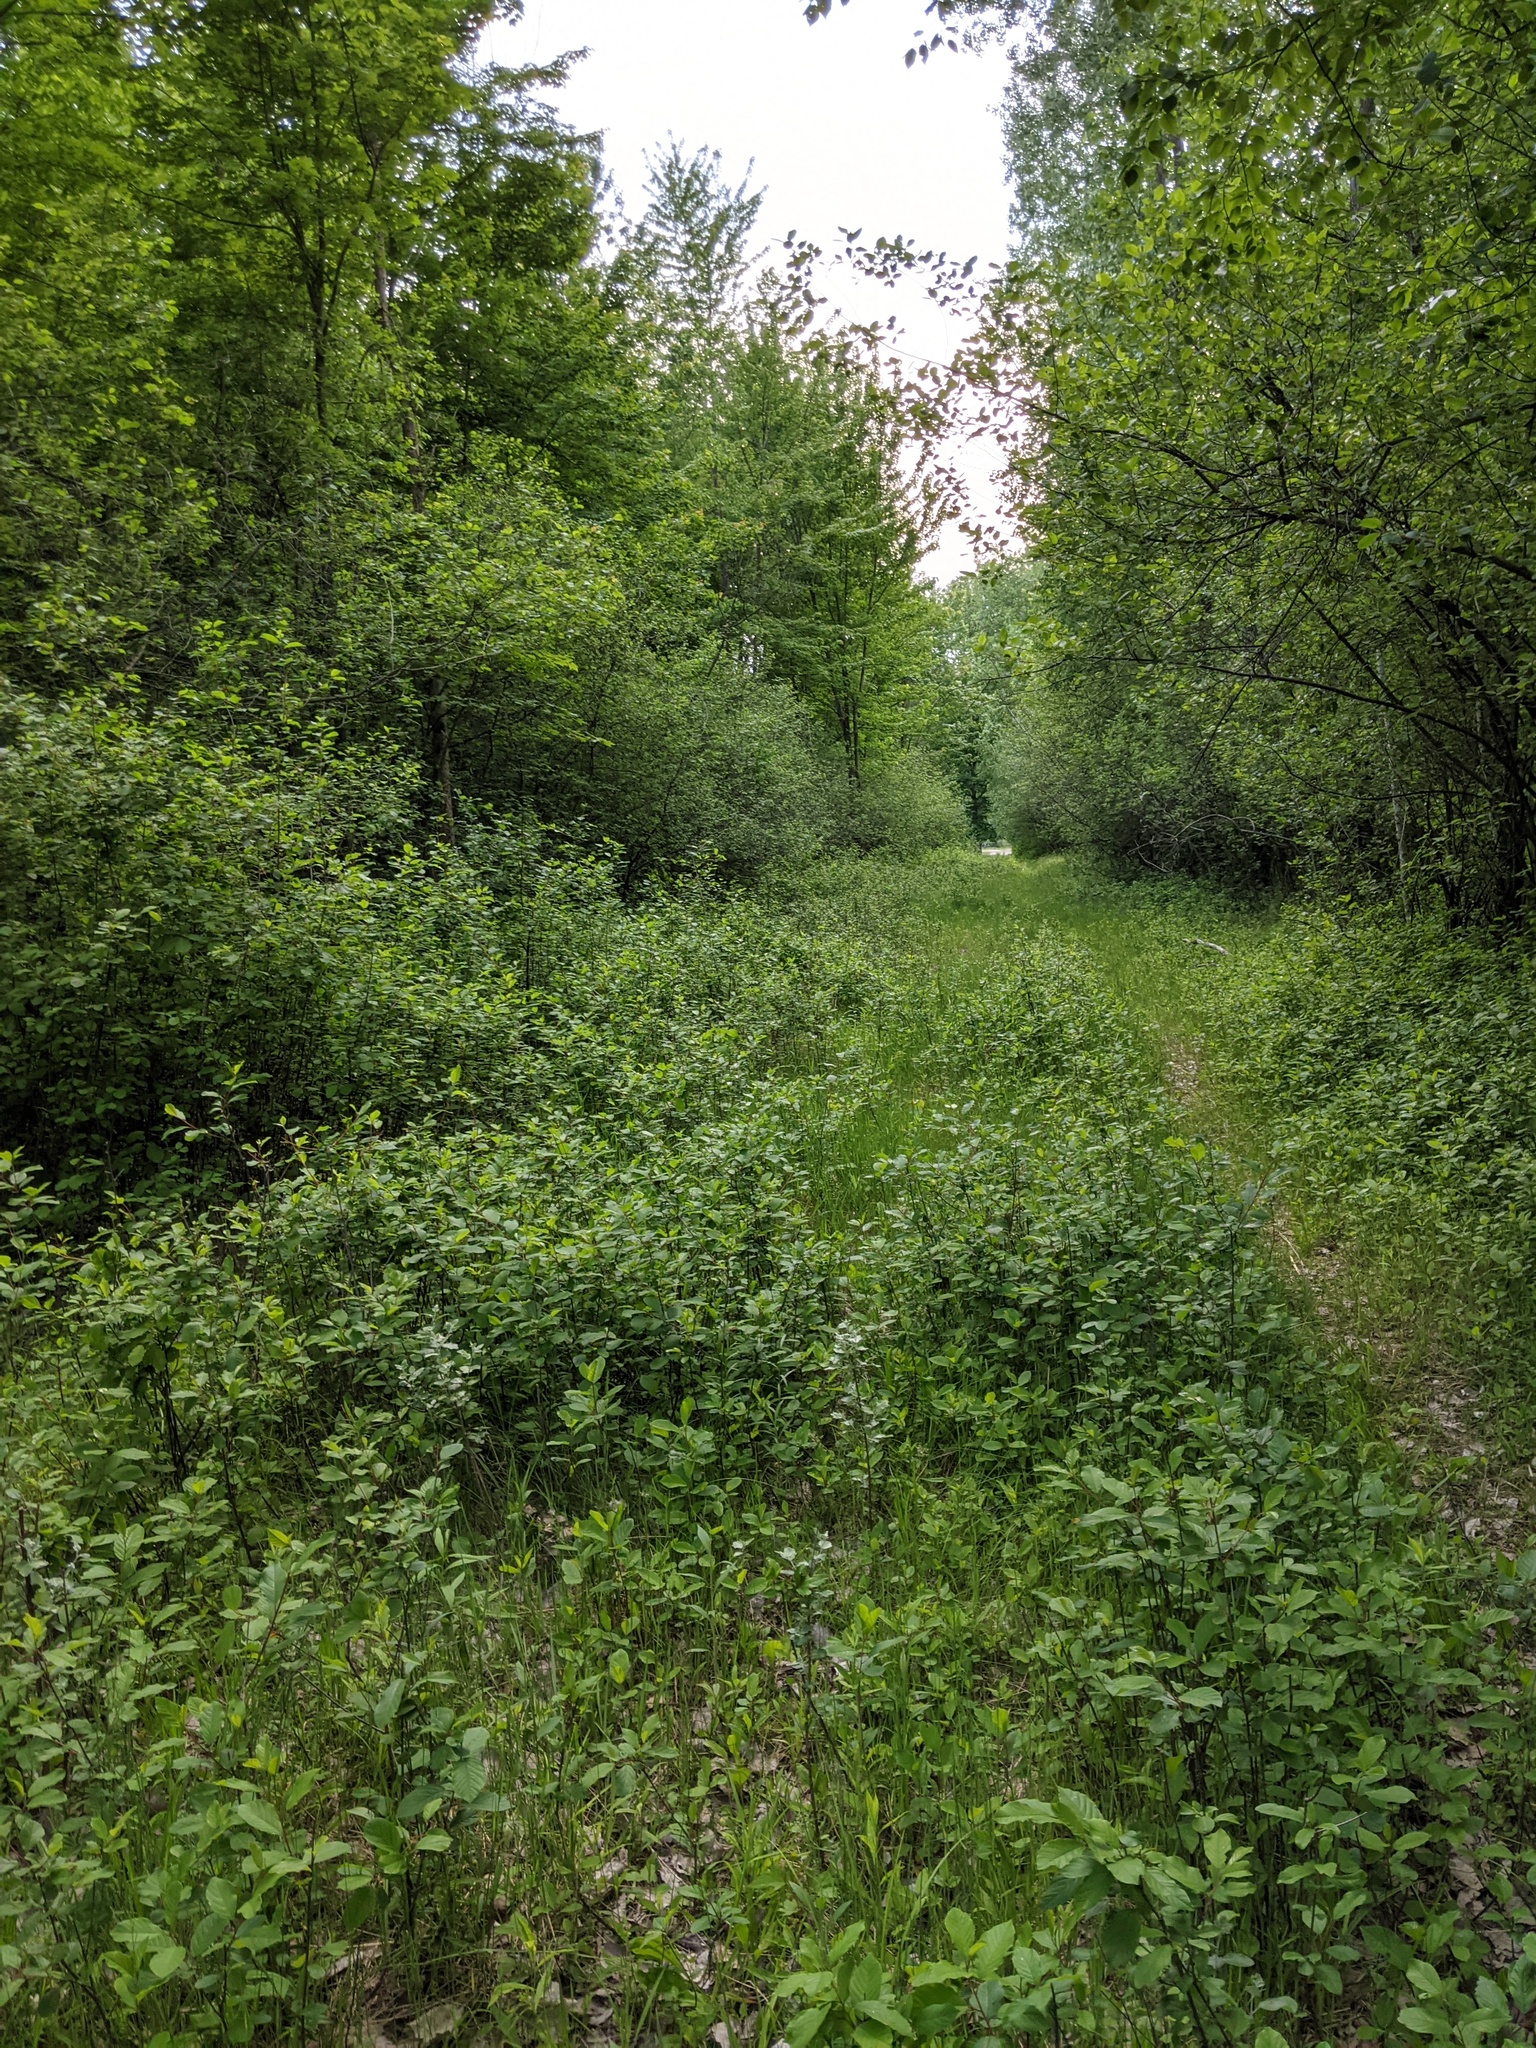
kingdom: Plantae
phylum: Tracheophyta
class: Magnoliopsida
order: Rosales
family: Rhamnaceae
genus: Frangula
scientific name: Frangula alnus
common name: Alder buckthorn
